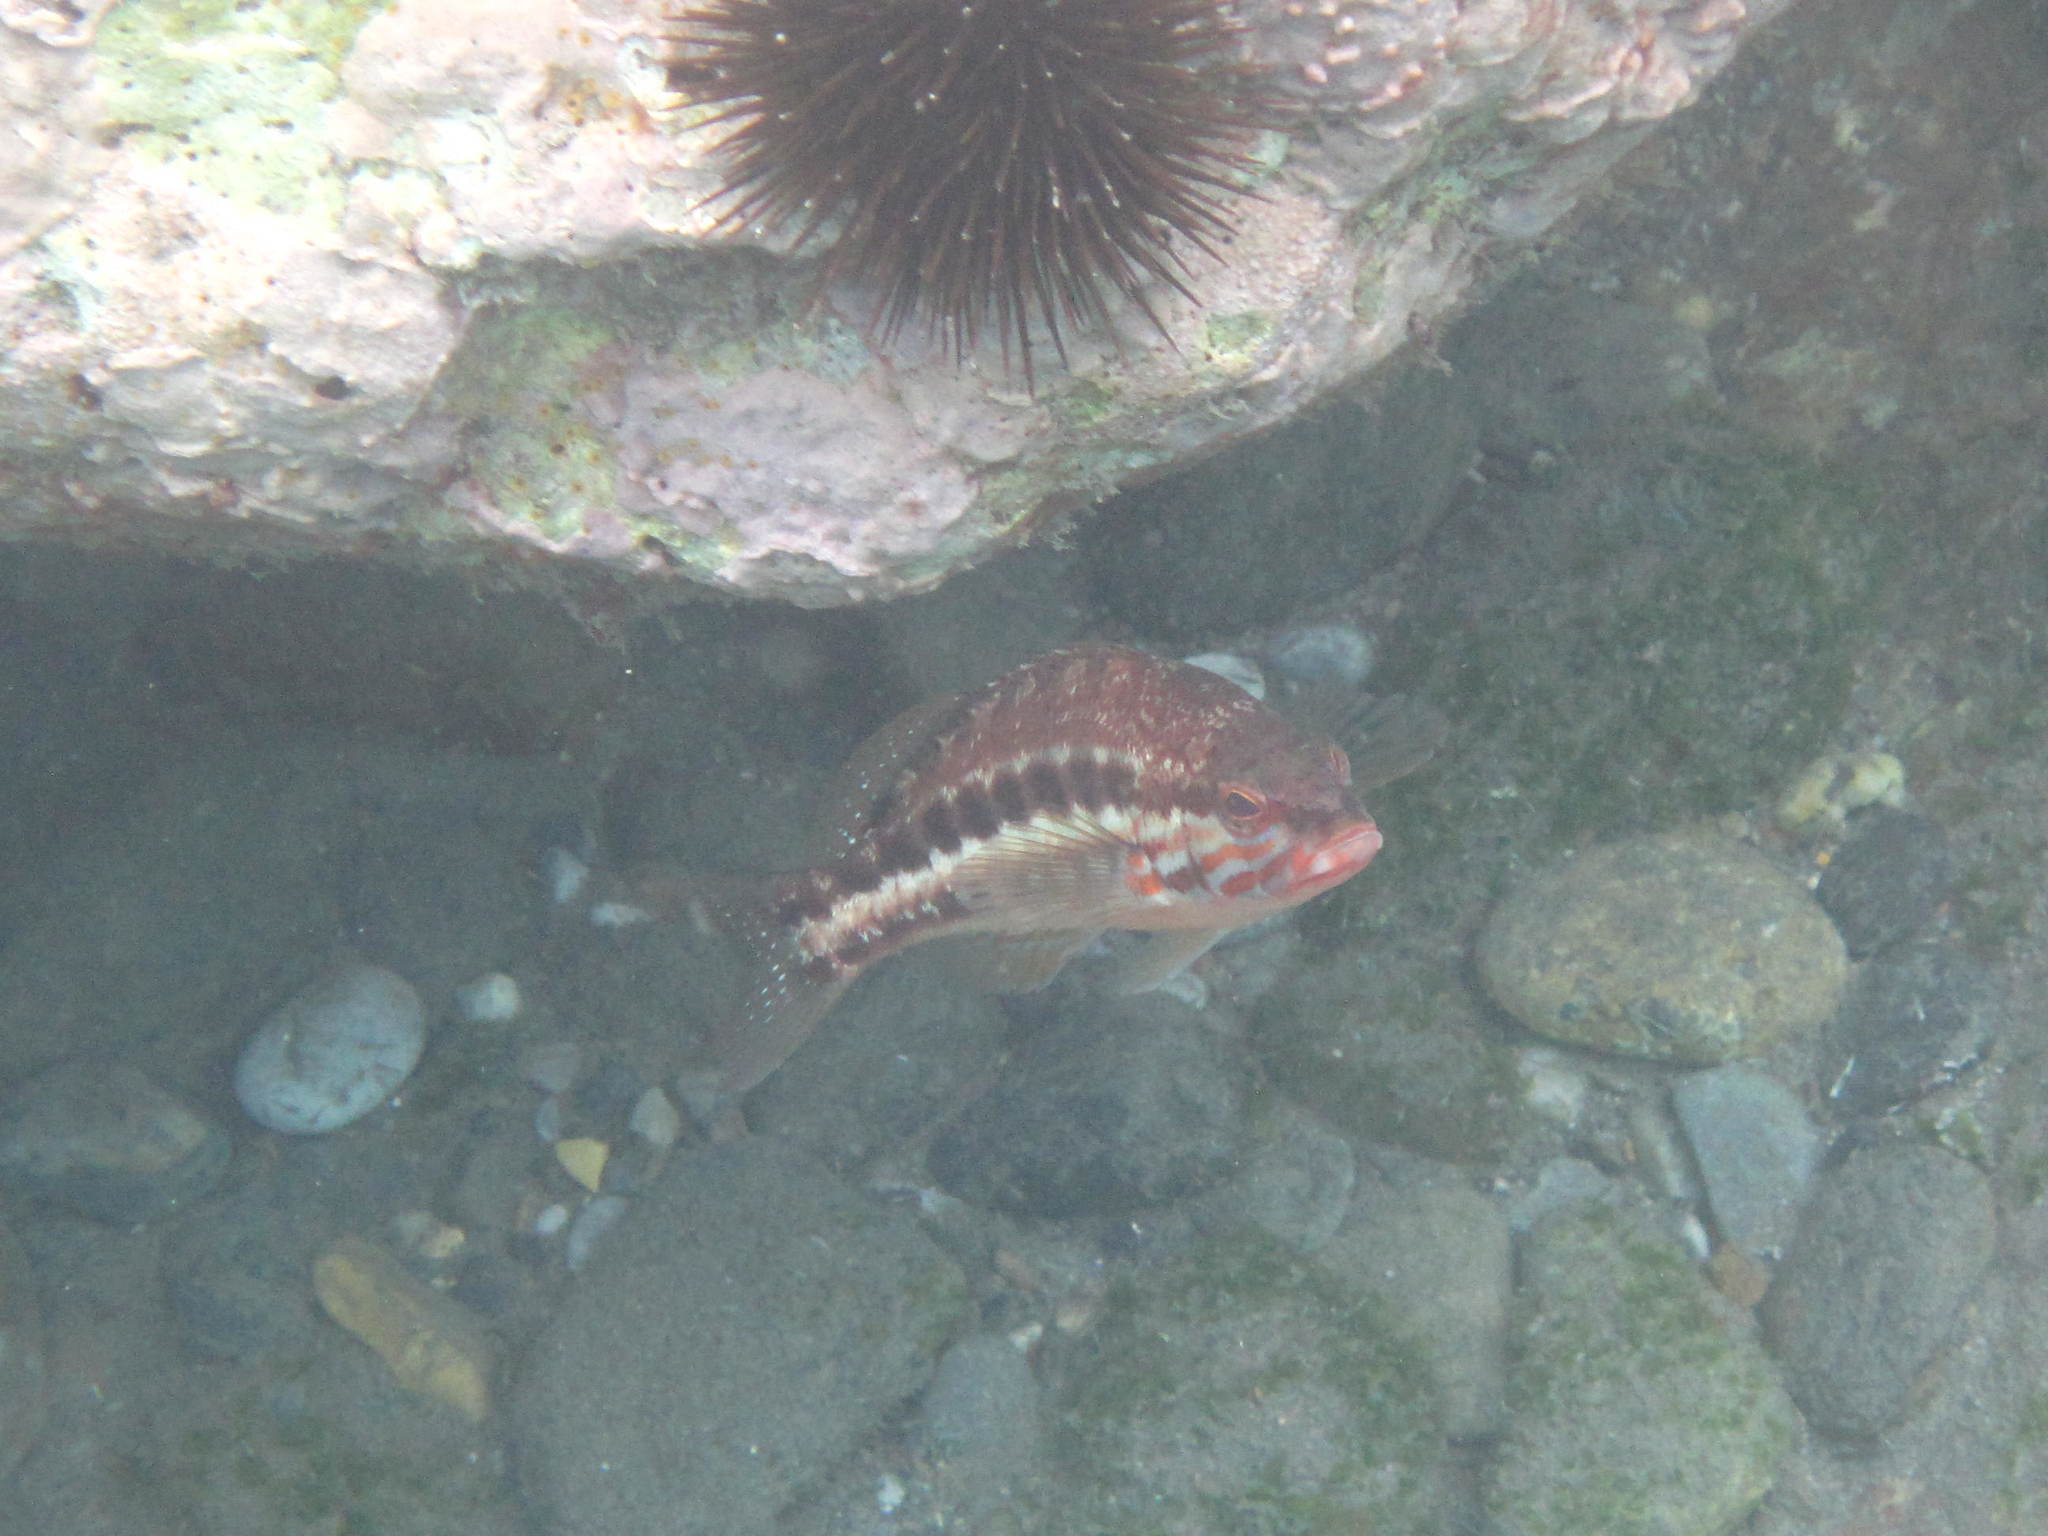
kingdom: Animalia
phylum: Chordata
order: Perciformes
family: Serranidae
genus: Serranus
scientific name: Serranus cabrilla
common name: Comber
